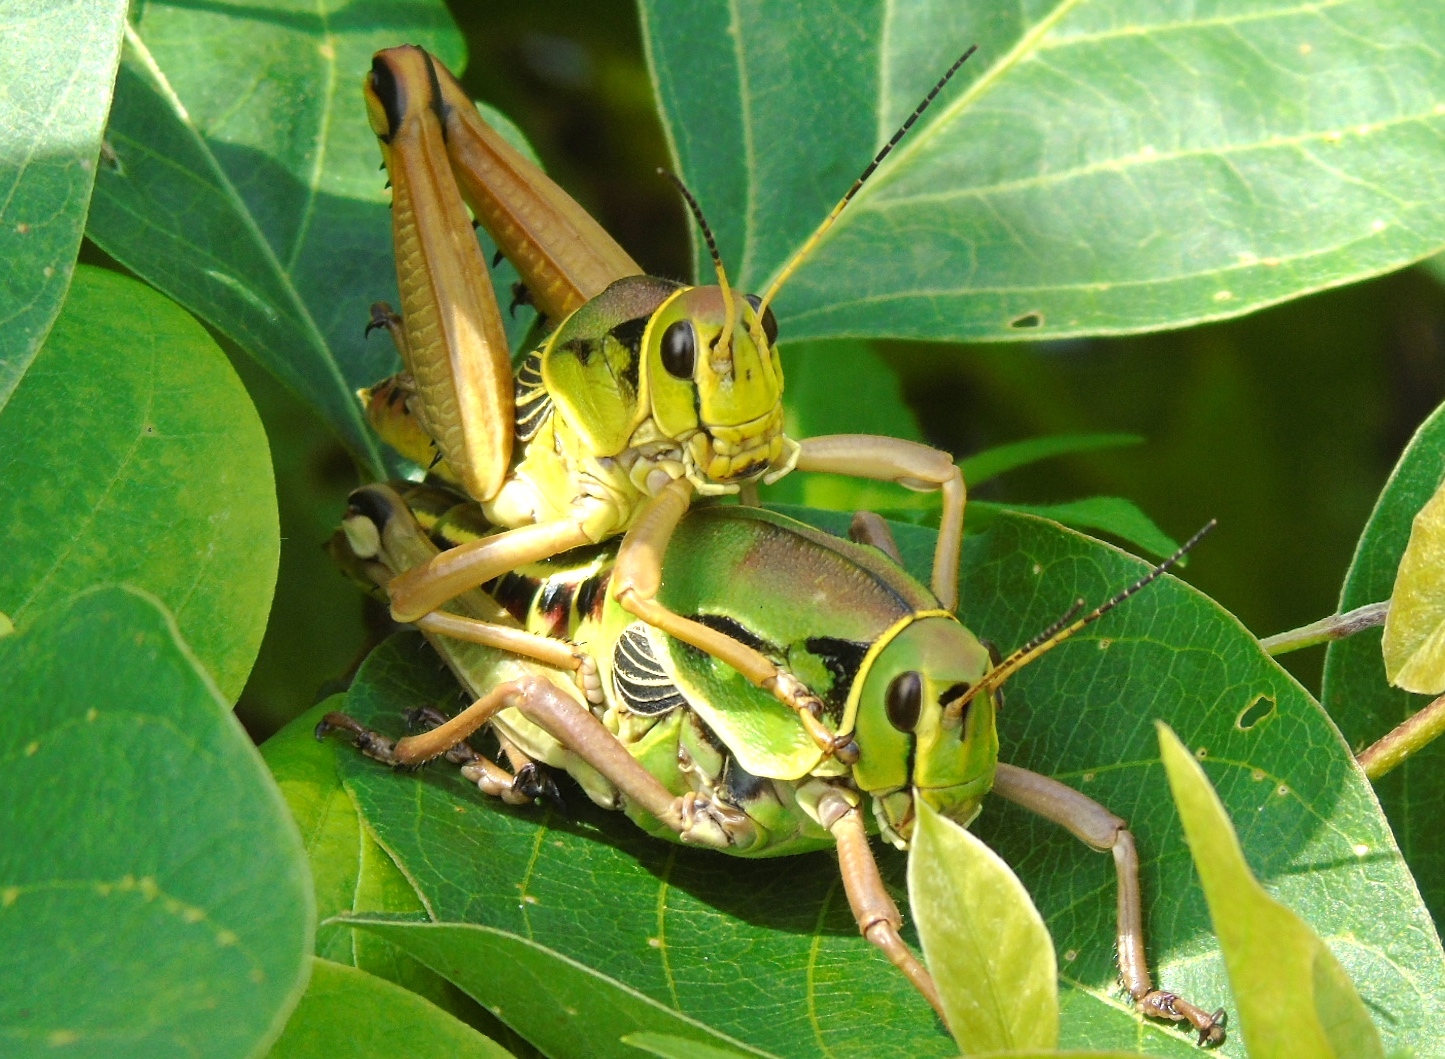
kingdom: Animalia
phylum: Arthropoda
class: Insecta
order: Orthoptera
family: Romaleidae
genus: Brachystola
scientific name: Brachystola behrensii
